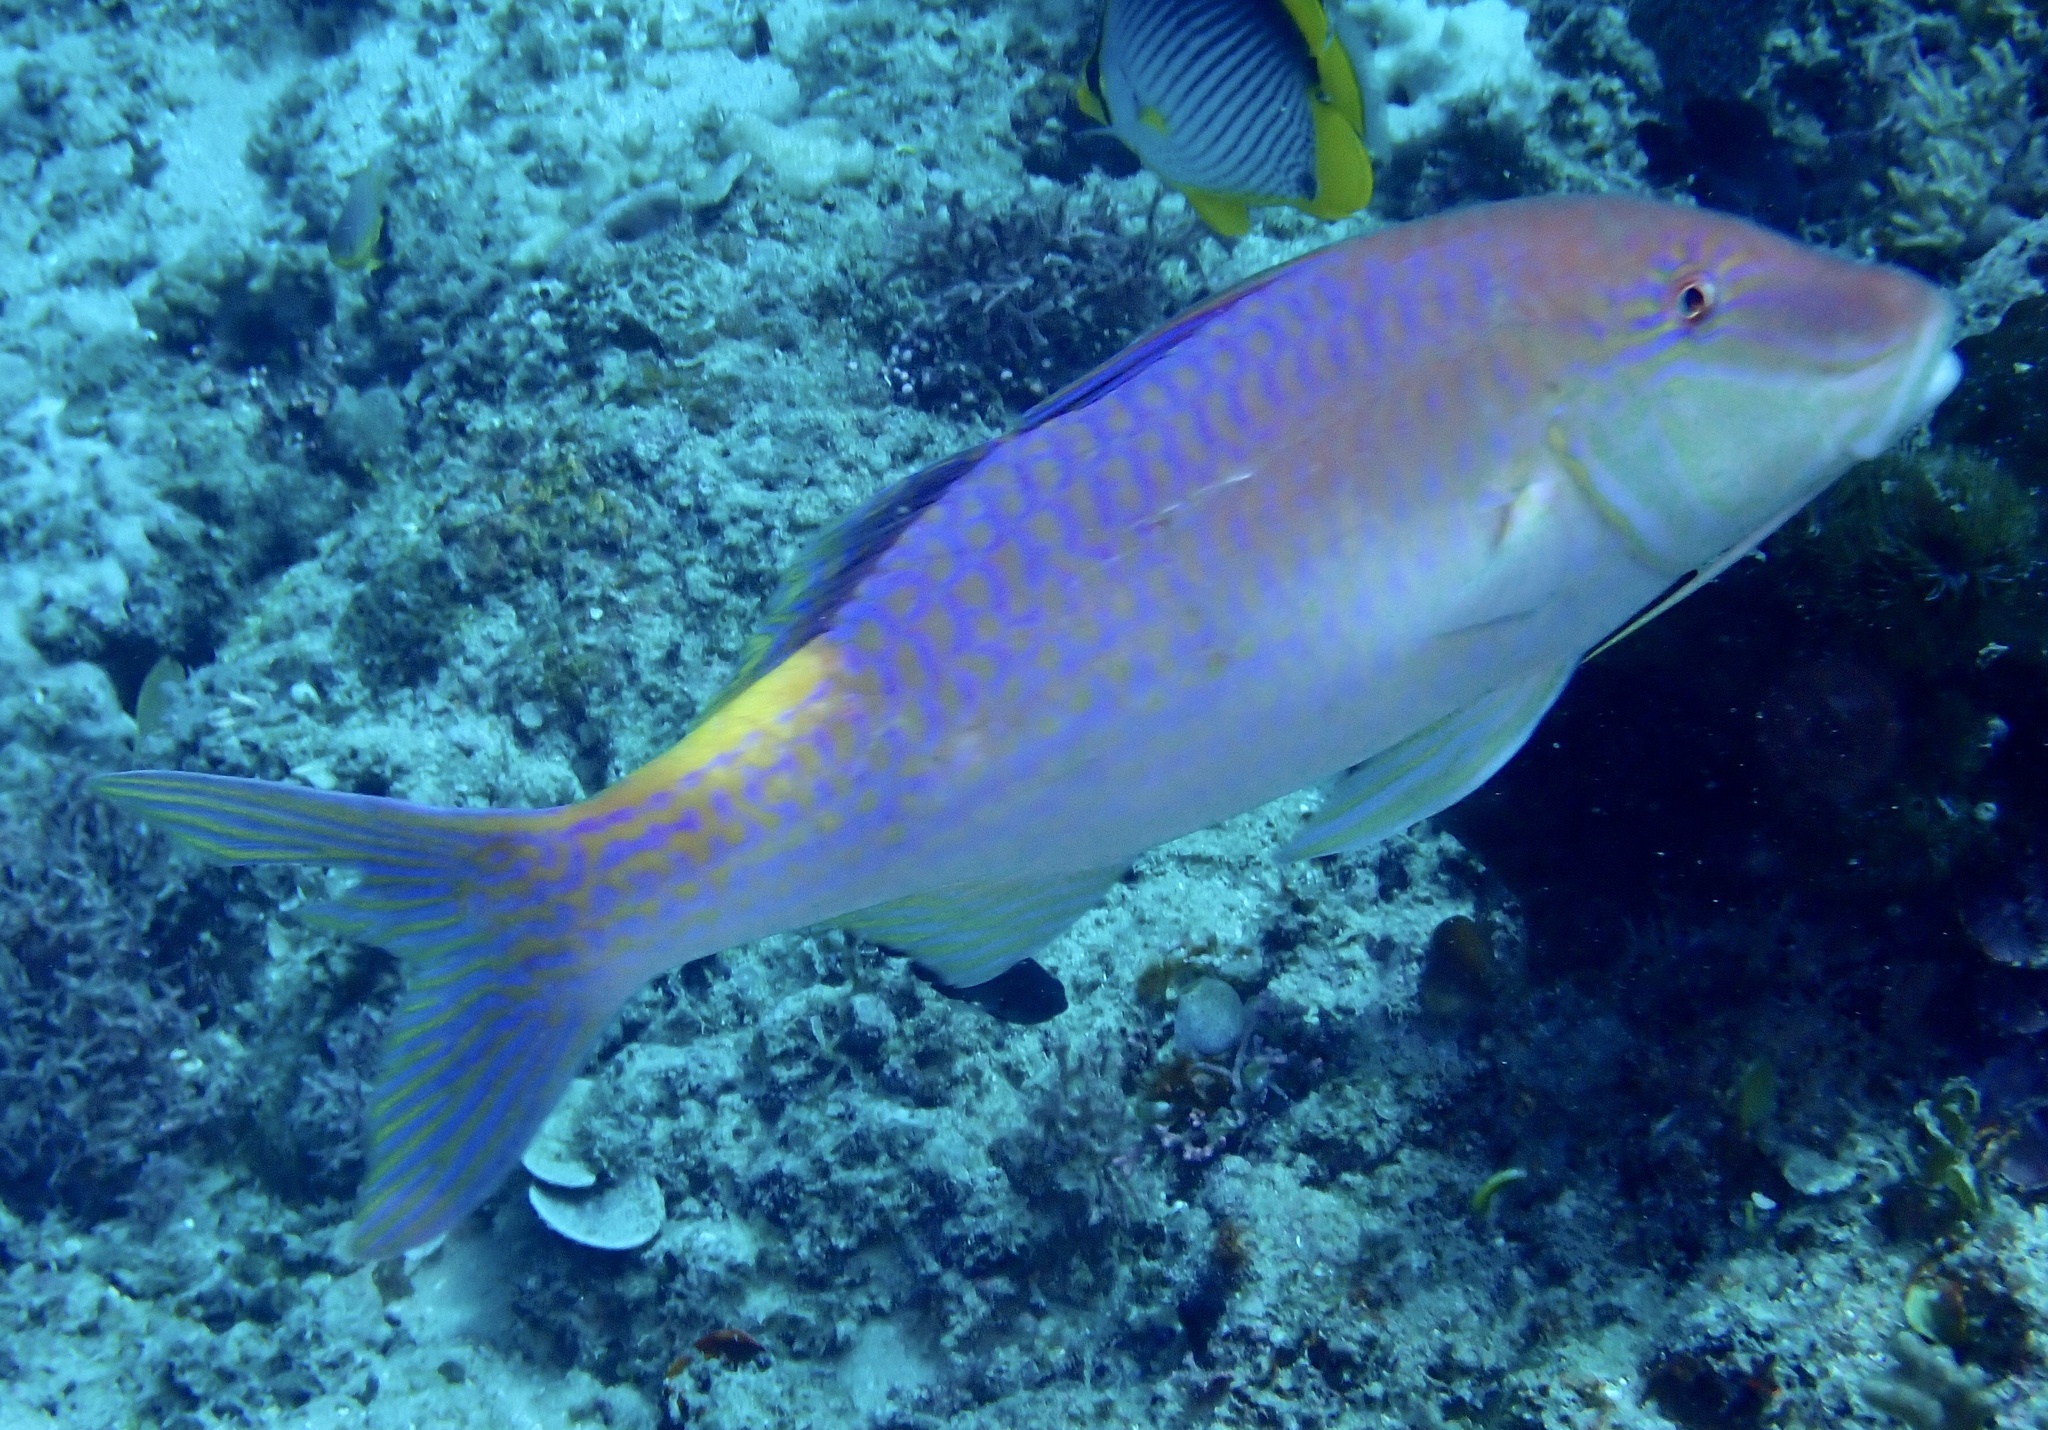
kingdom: Animalia
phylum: Chordata
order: Perciformes
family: Mullidae
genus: Parupeneus
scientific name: Parupeneus cyclostomus
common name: Goldsaddle goatfish
